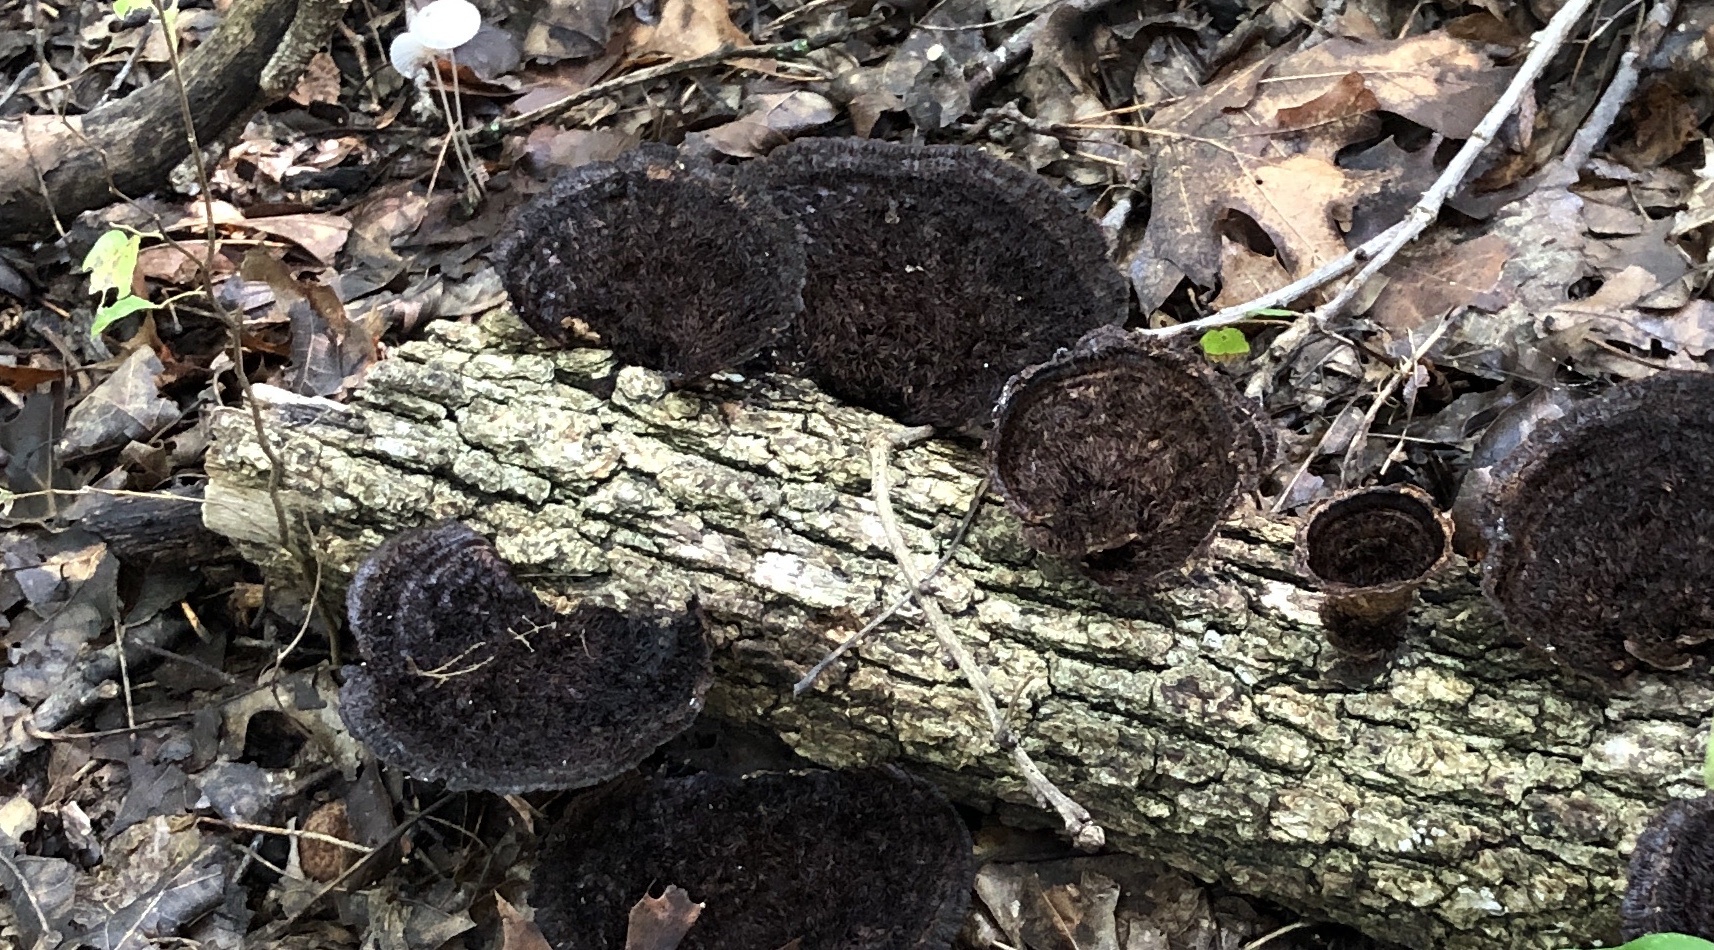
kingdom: Fungi
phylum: Basidiomycota
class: Agaricomycetes
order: Polyporales
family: Cerrenaceae
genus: Cerrena
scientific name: Cerrena hydnoides
